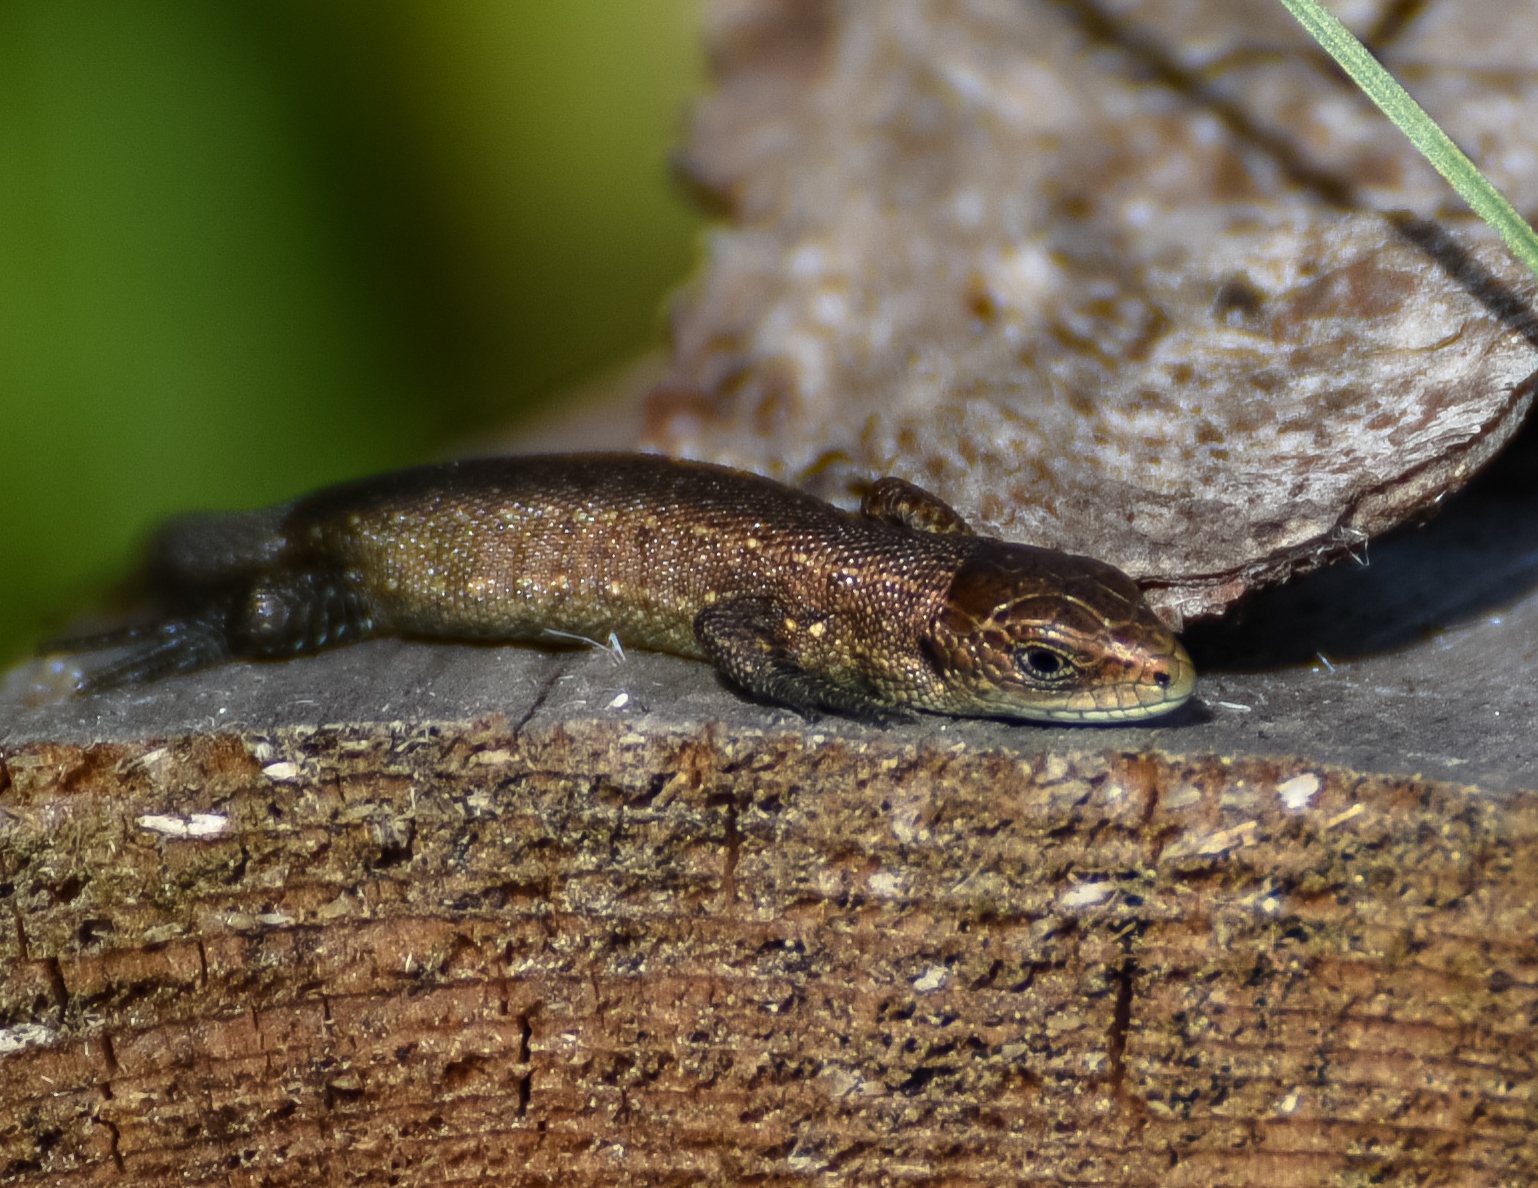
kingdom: Animalia
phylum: Chordata
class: Squamata
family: Lacertidae
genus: Zootoca
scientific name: Zootoca vivipara
